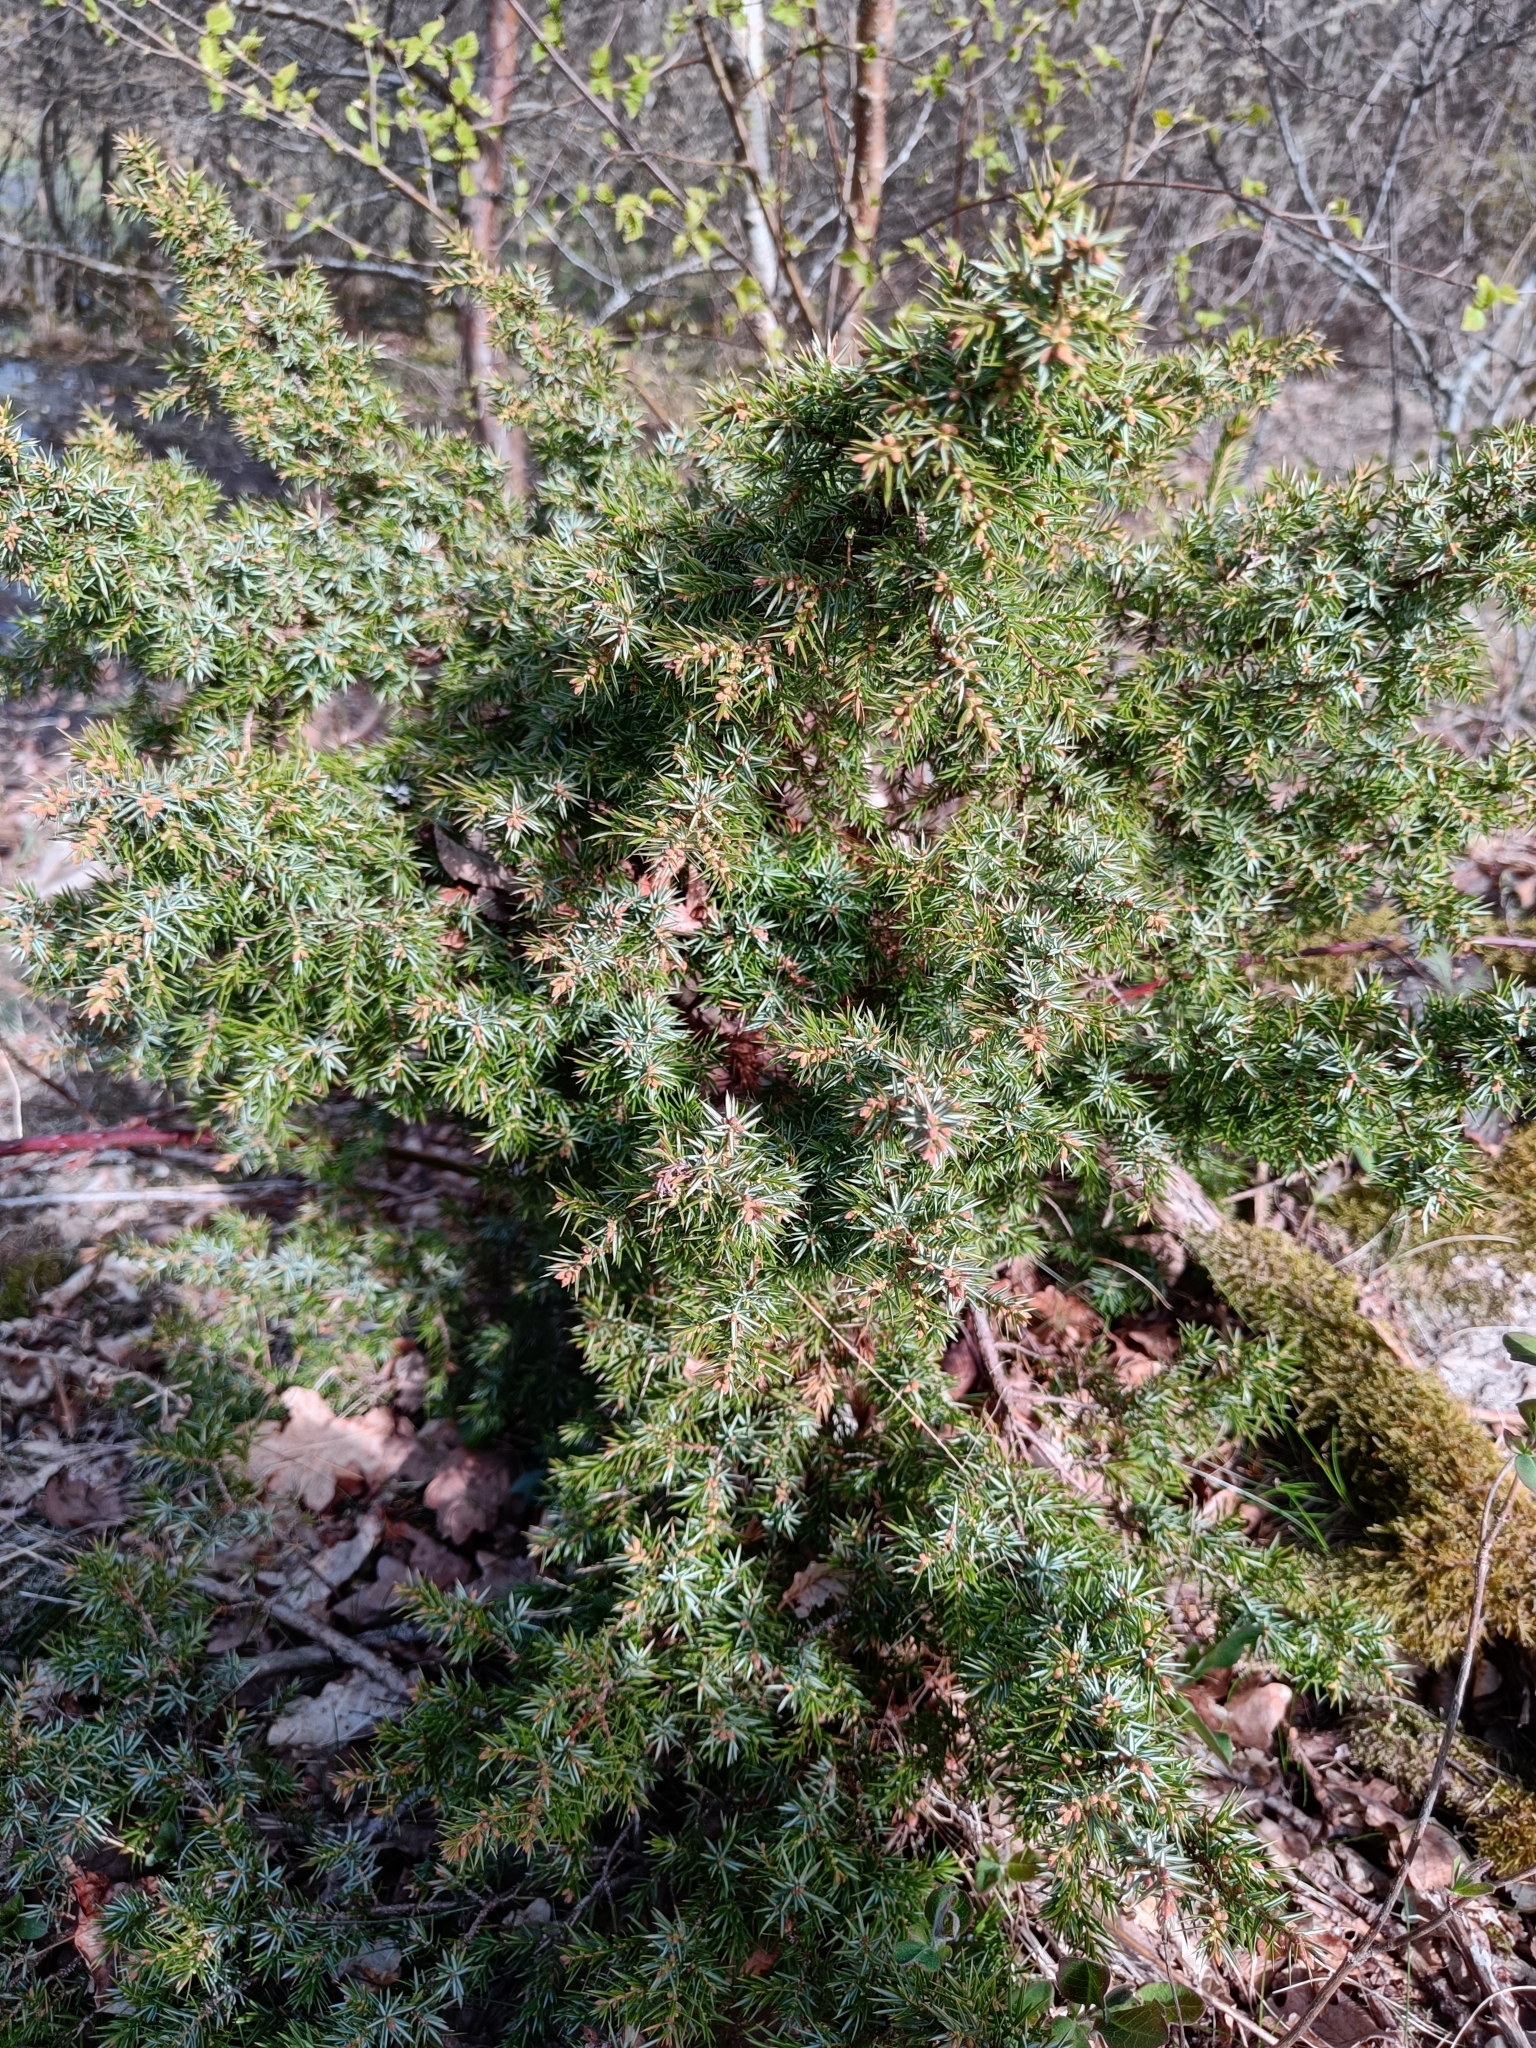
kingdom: Plantae
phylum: Tracheophyta
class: Pinopsida
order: Pinales
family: Cupressaceae
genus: Juniperus
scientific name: Juniperus communis
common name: Common juniper
